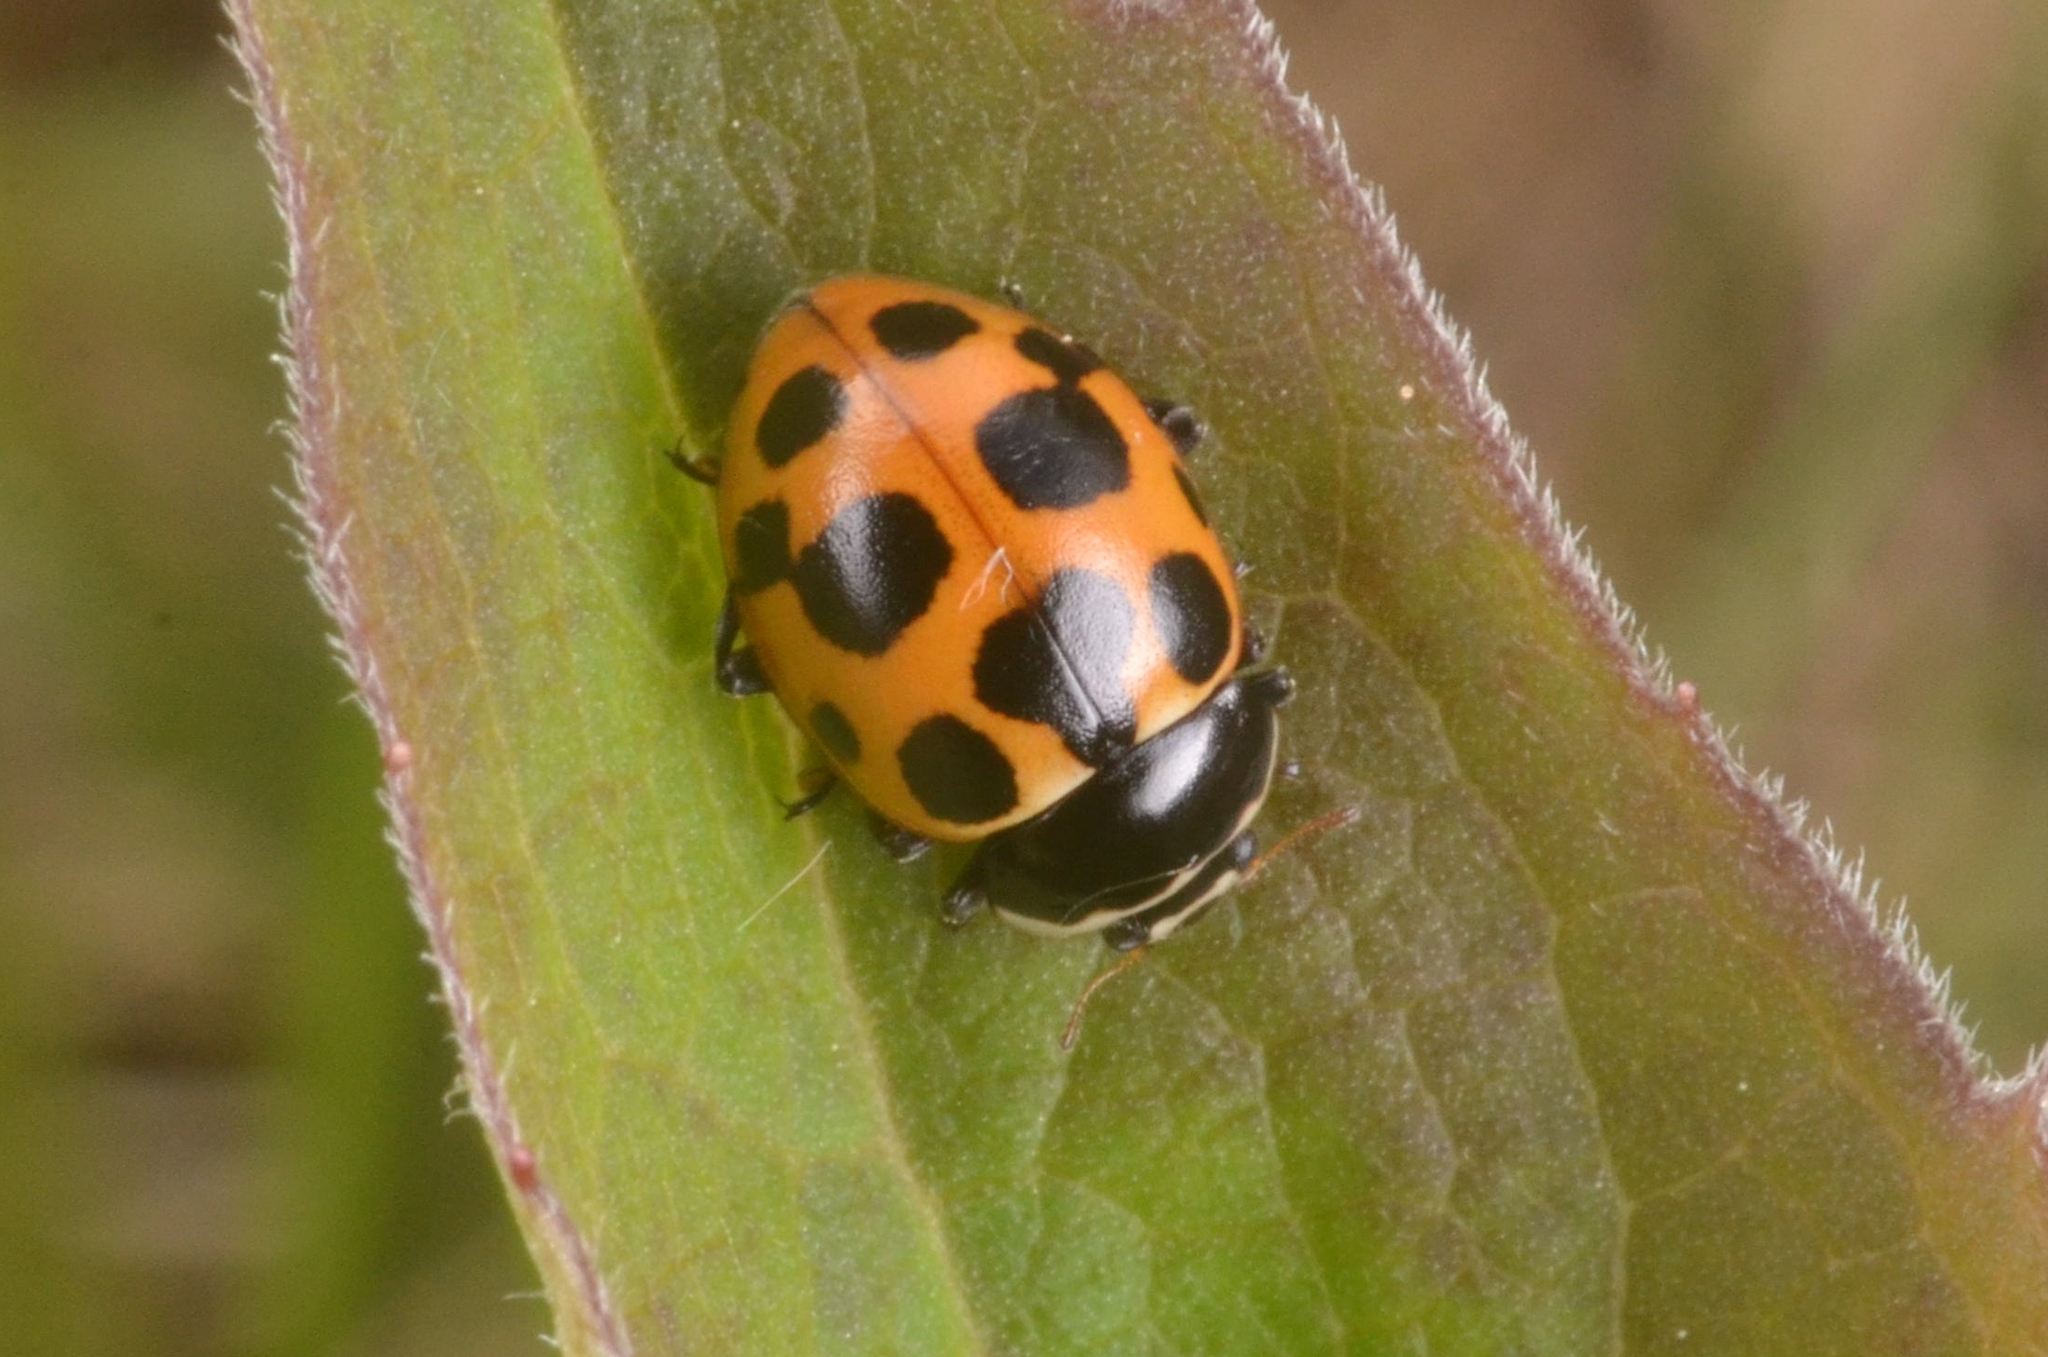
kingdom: Animalia
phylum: Arthropoda
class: Insecta
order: Coleoptera
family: Coccinellidae
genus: Ceratomegilla
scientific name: Ceratomegilla notata
